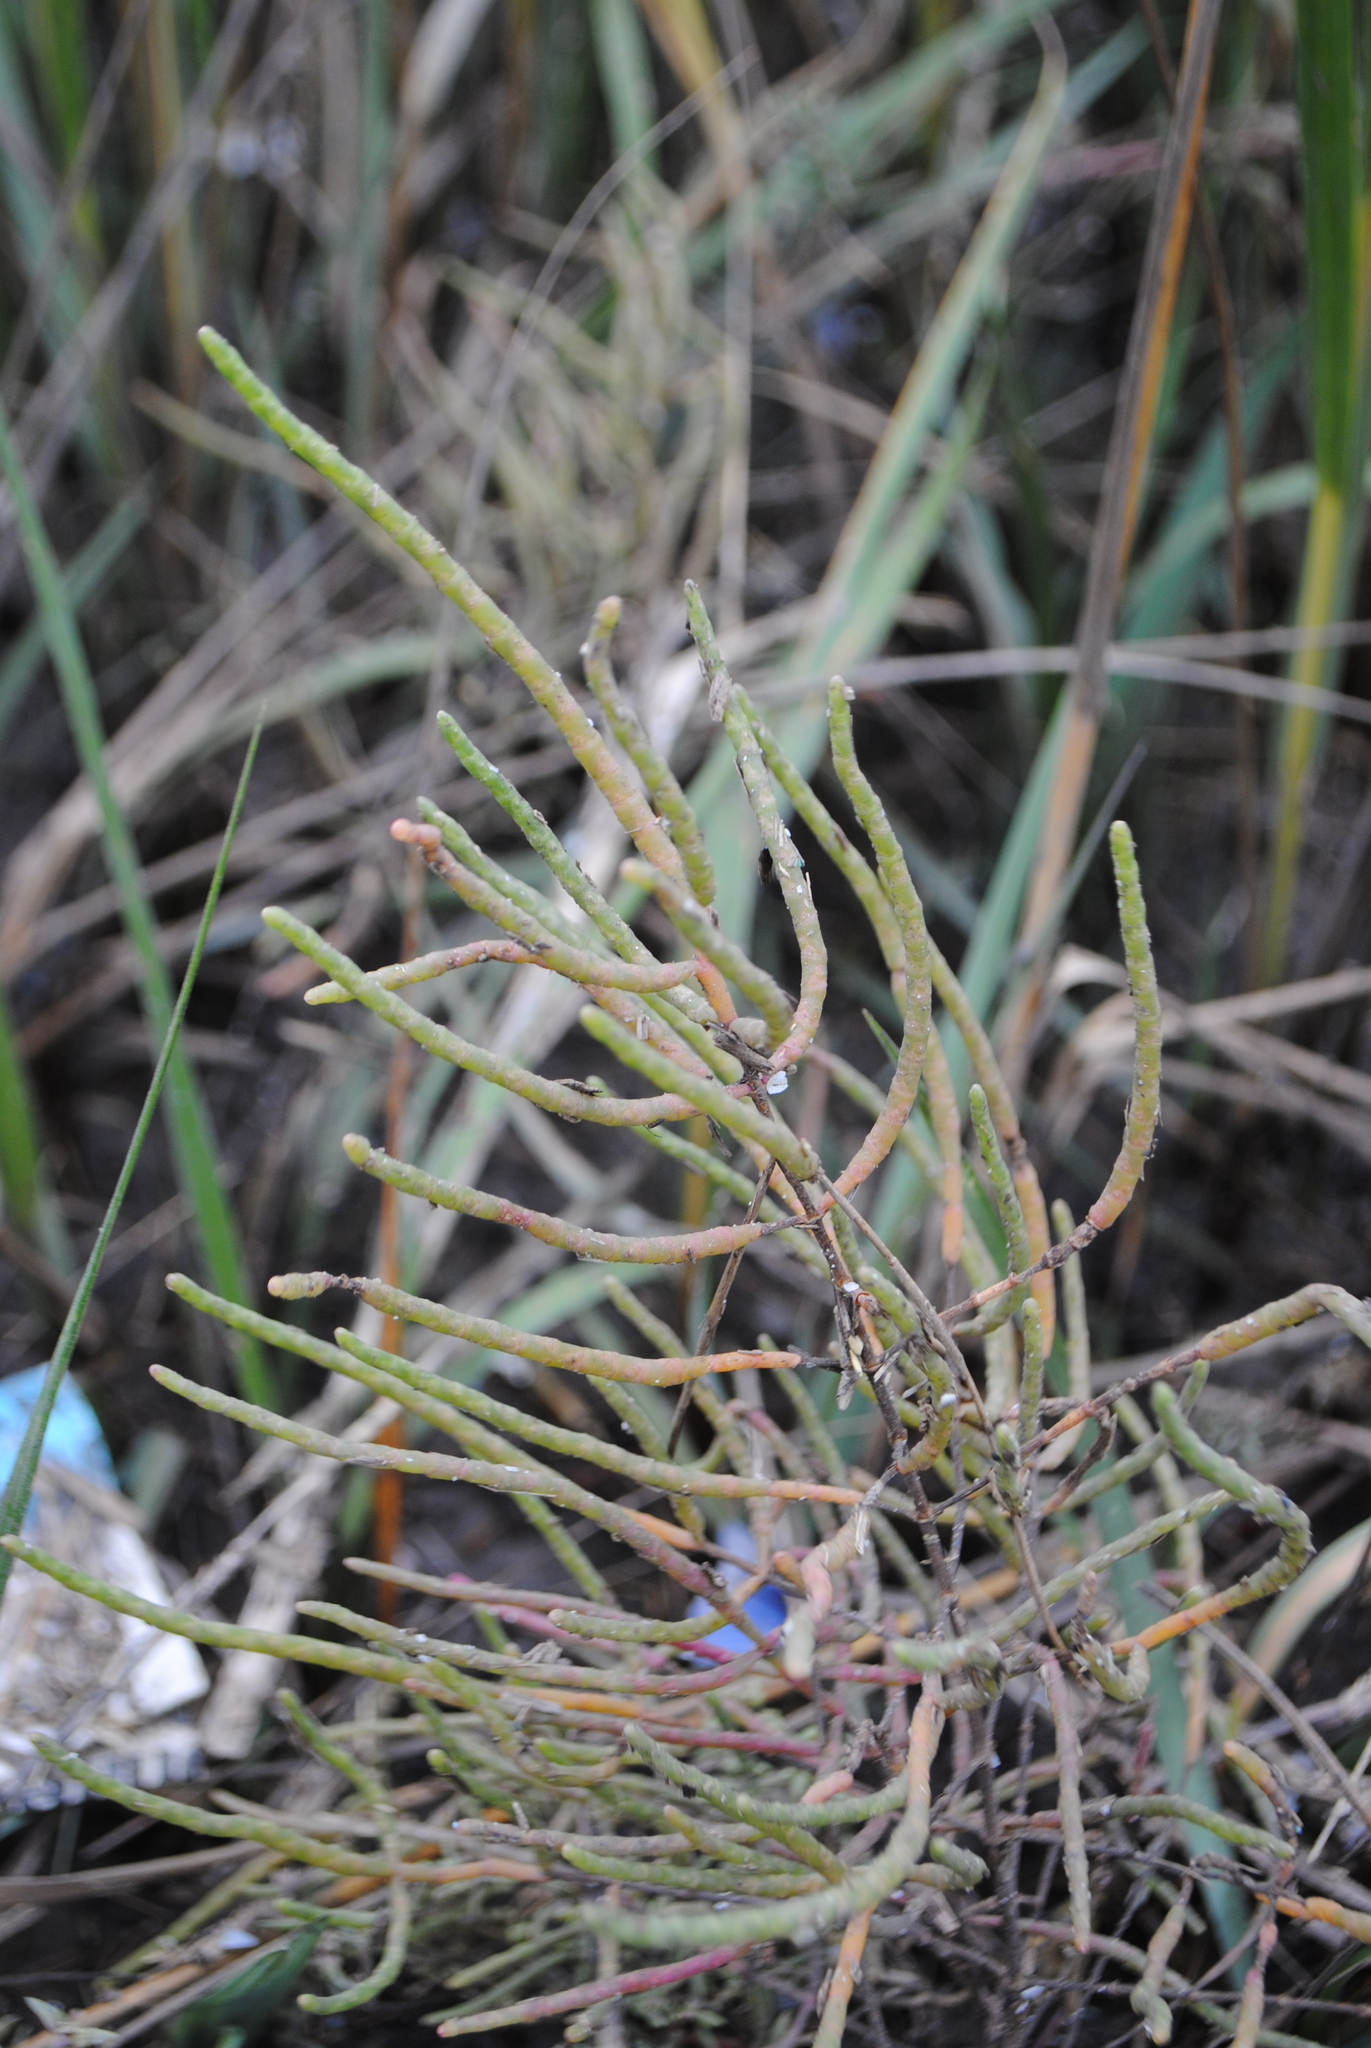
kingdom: Plantae
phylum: Tracheophyta
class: Magnoliopsida
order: Caryophyllales
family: Amaranthaceae
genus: Salicornia
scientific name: Salicornia virginica
